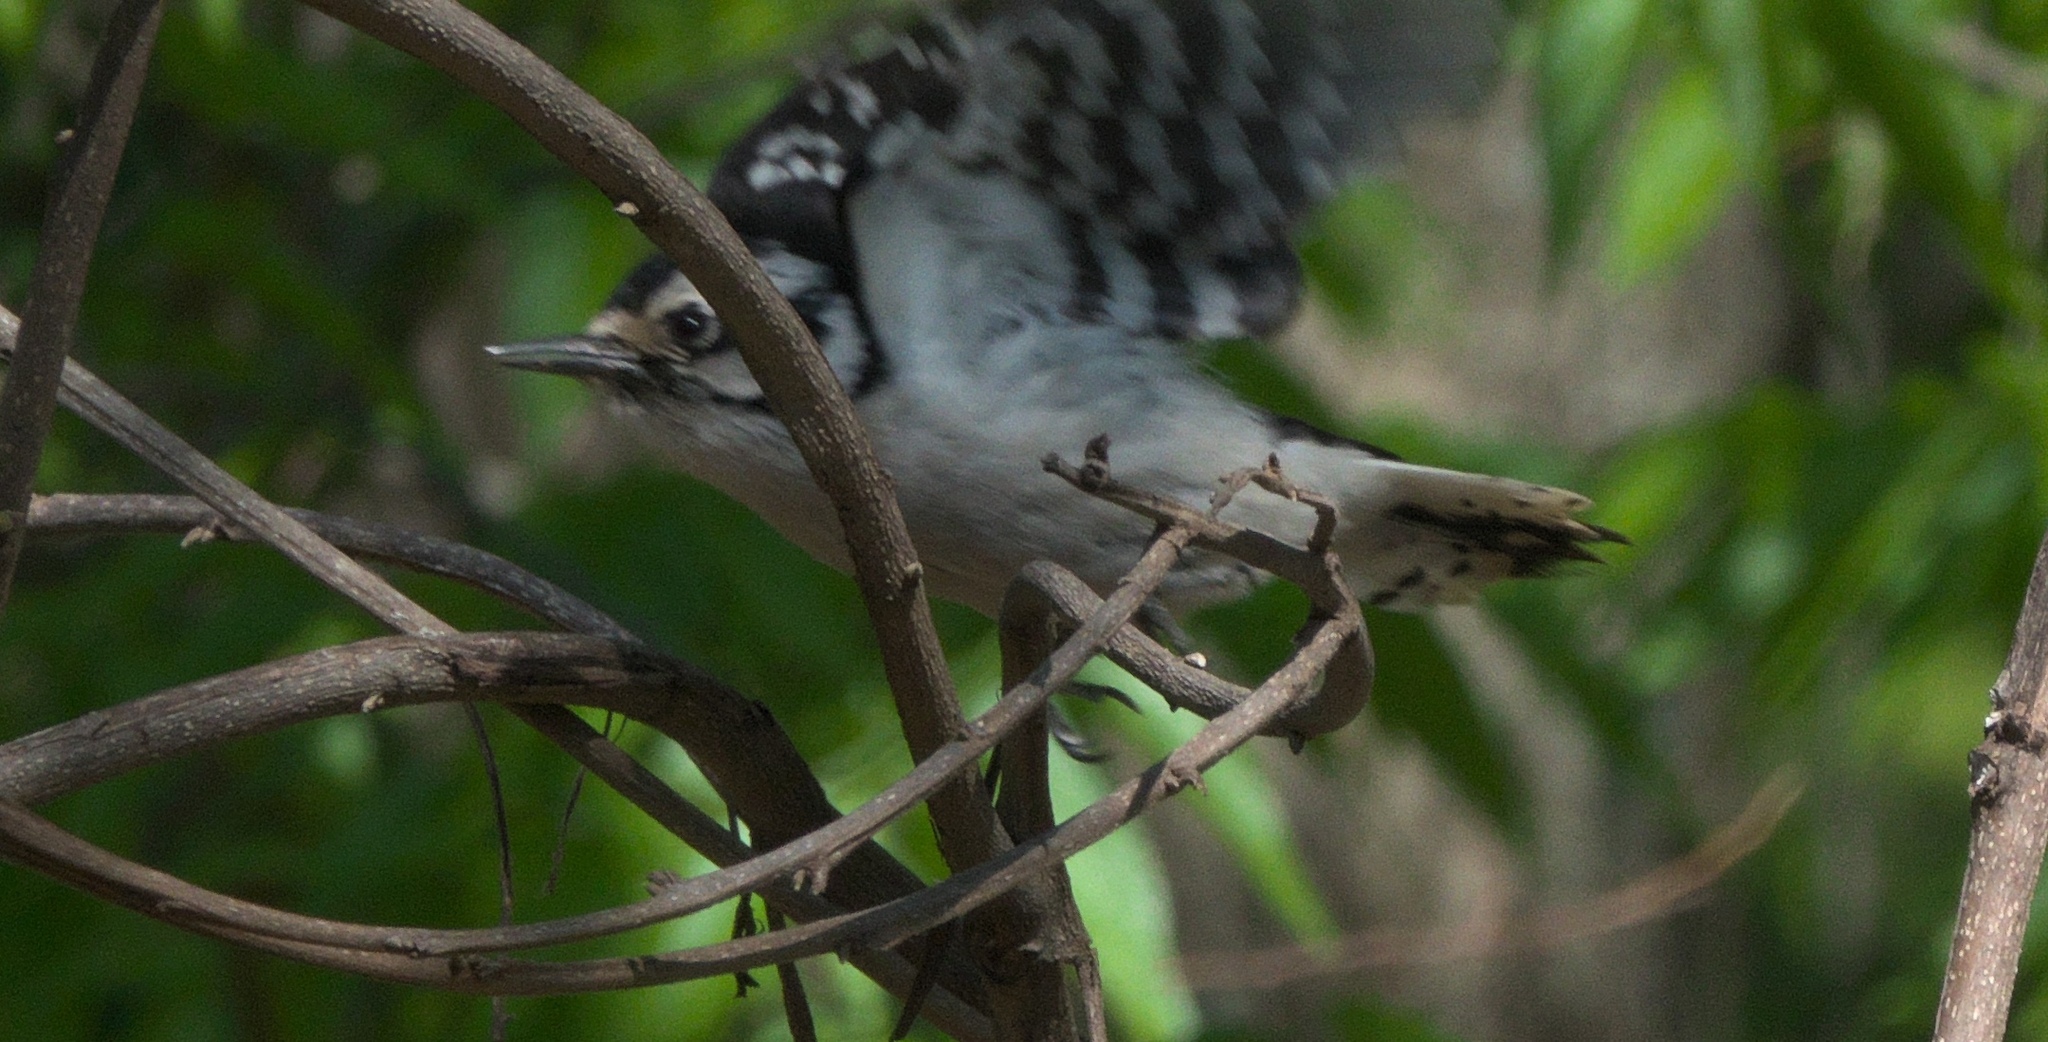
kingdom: Animalia
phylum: Chordata
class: Aves
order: Piciformes
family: Picidae
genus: Dryobates
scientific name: Dryobates pubescens
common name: Downy woodpecker
